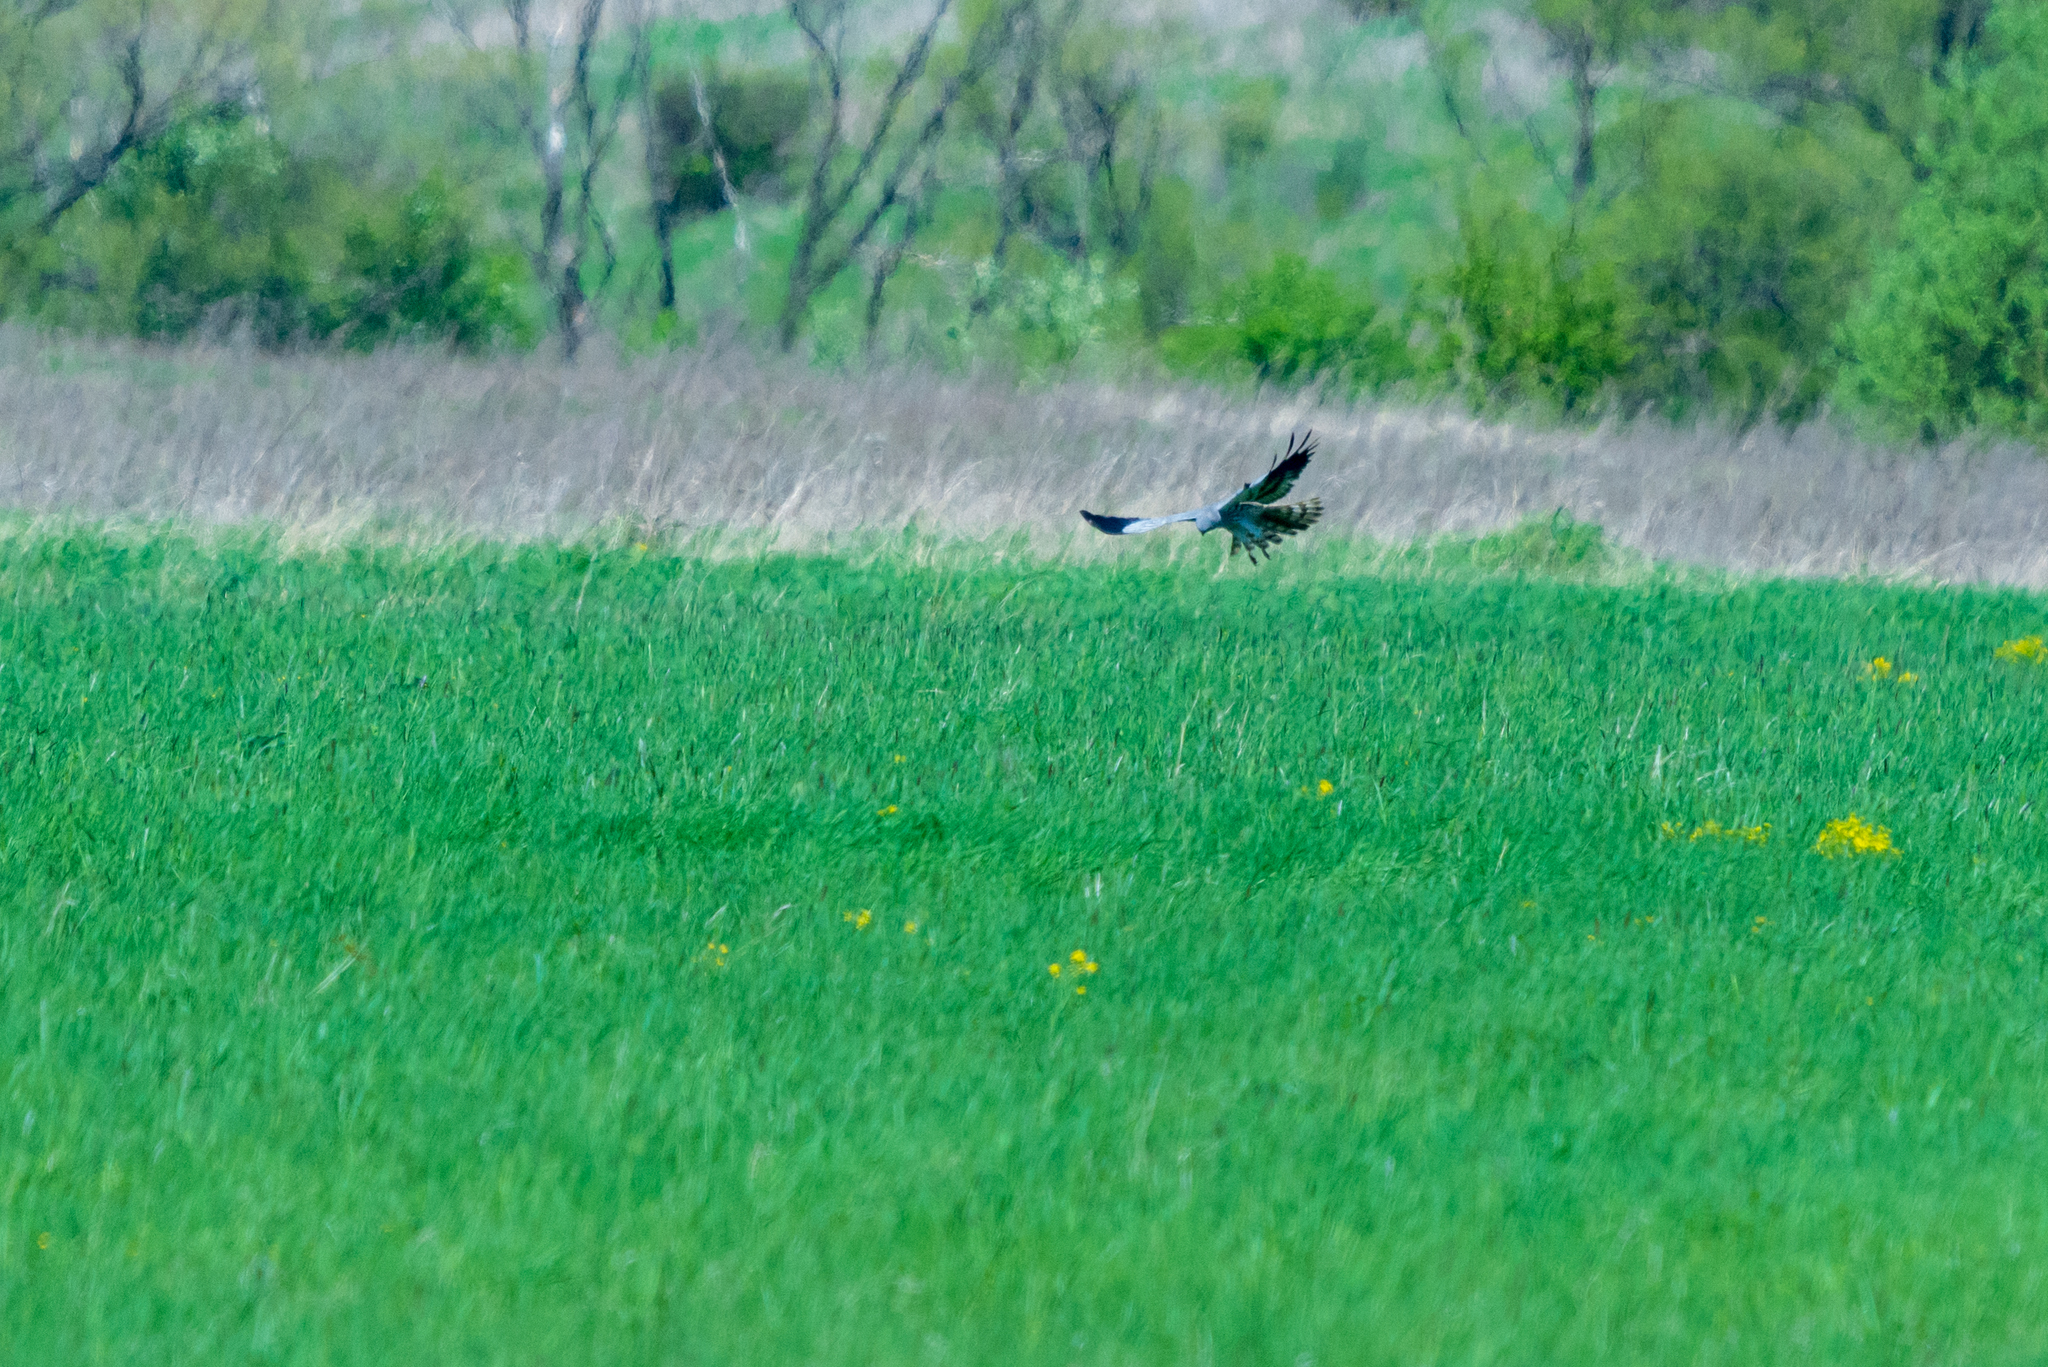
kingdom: Animalia
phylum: Chordata
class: Aves
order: Accipitriformes
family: Accipitridae
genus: Circus
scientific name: Circus pygargus
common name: Montagu's harrier
